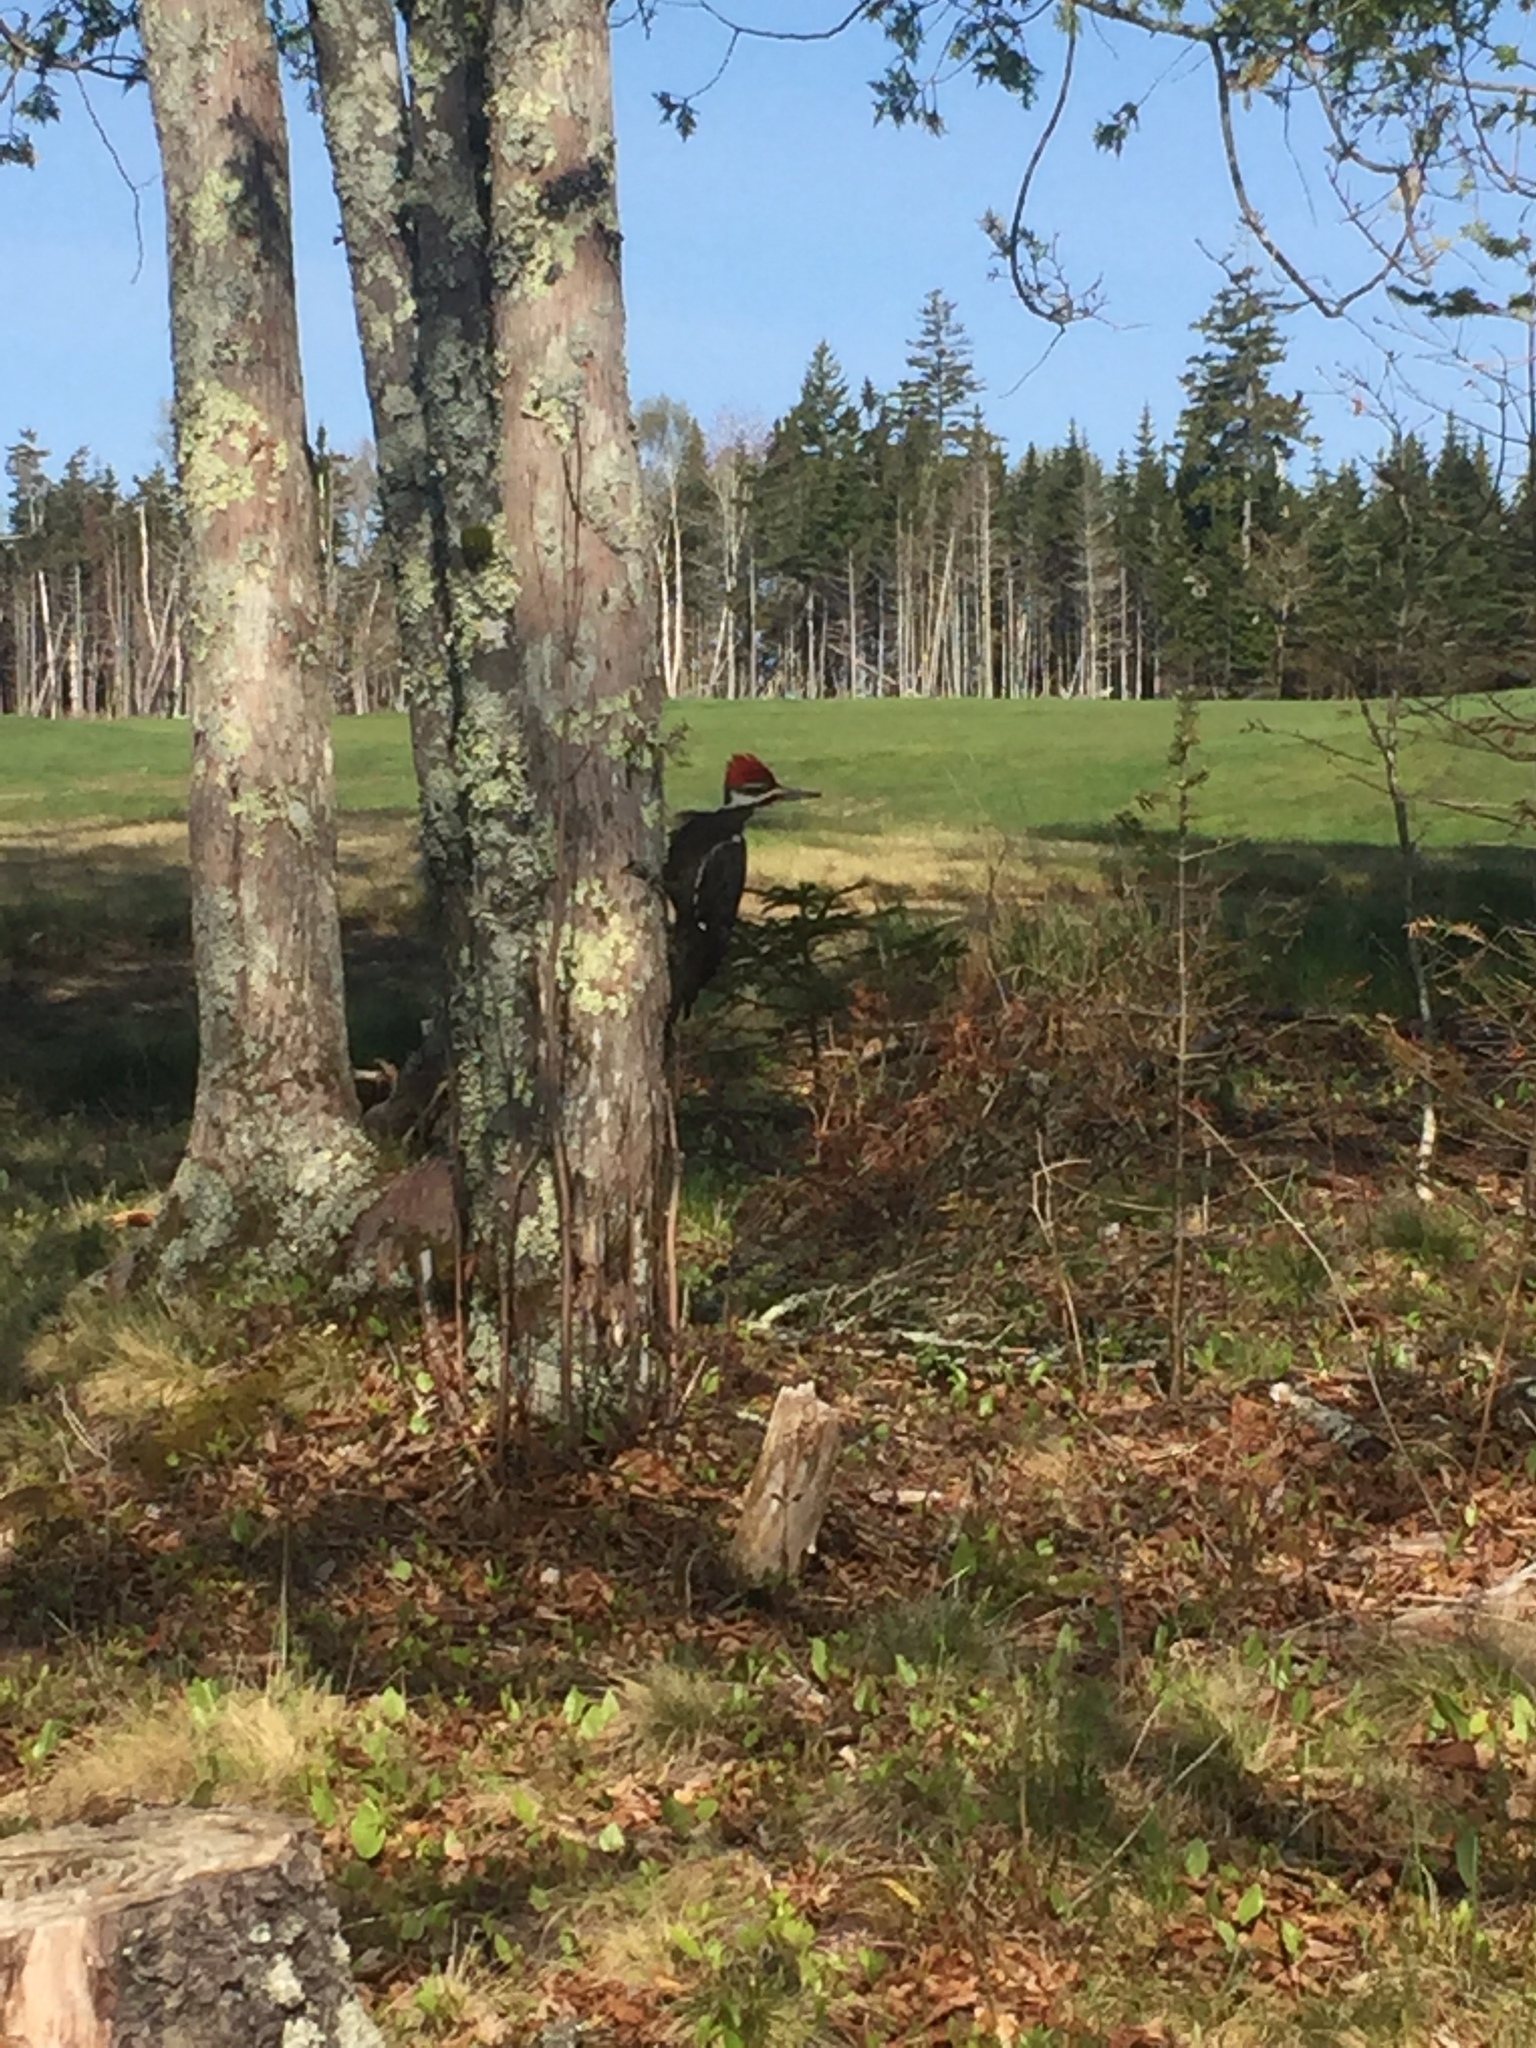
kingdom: Animalia
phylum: Chordata
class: Aves
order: Piciformes
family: Picidae
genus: Dryocopus
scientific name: Dryocopus pileatus
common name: Pileated woodpecker
